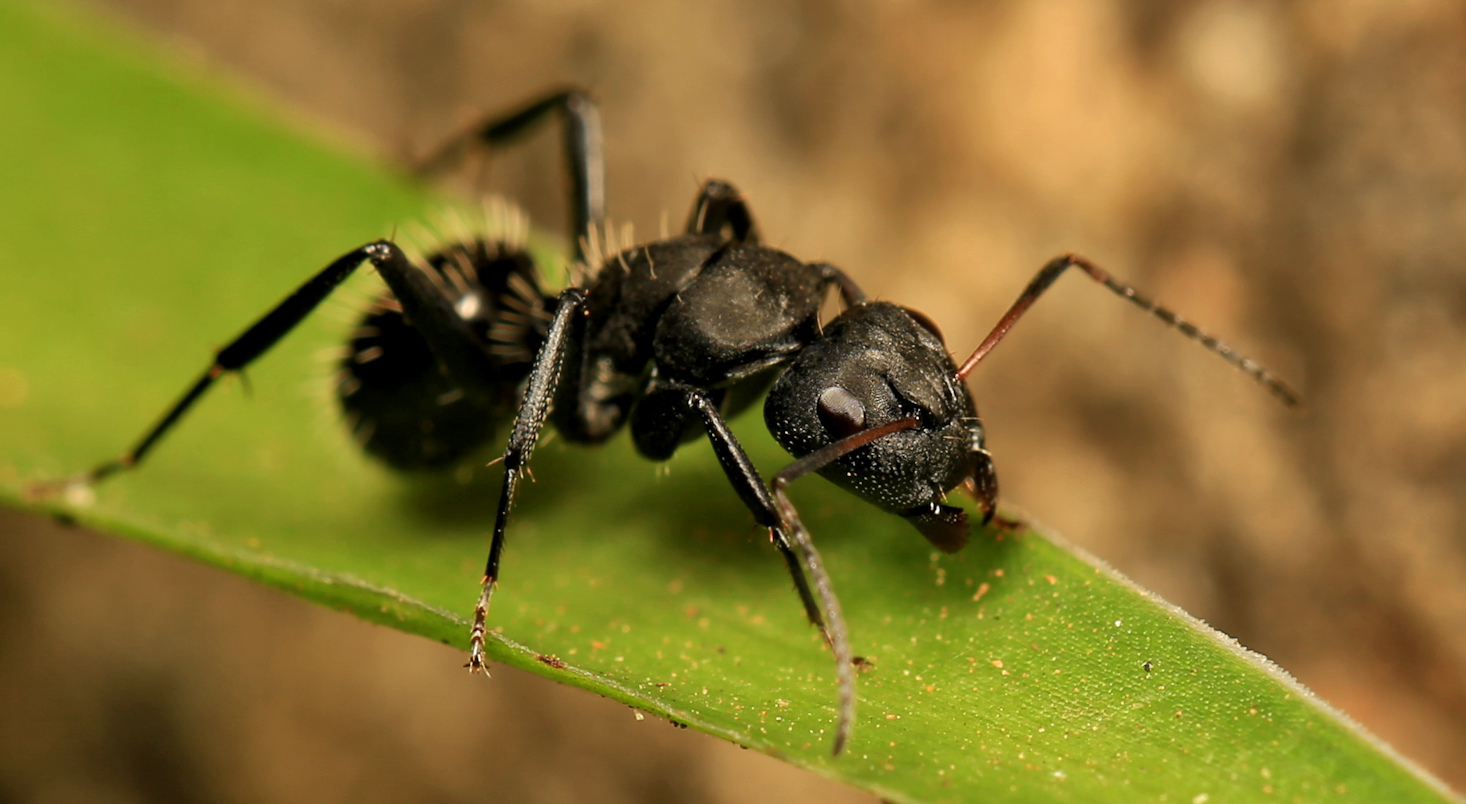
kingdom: Animalia
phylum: Arthropoda
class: Insecta
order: Hymenoptera
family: Formicidae
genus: Camponotus
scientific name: Camponotus niveosetosus
